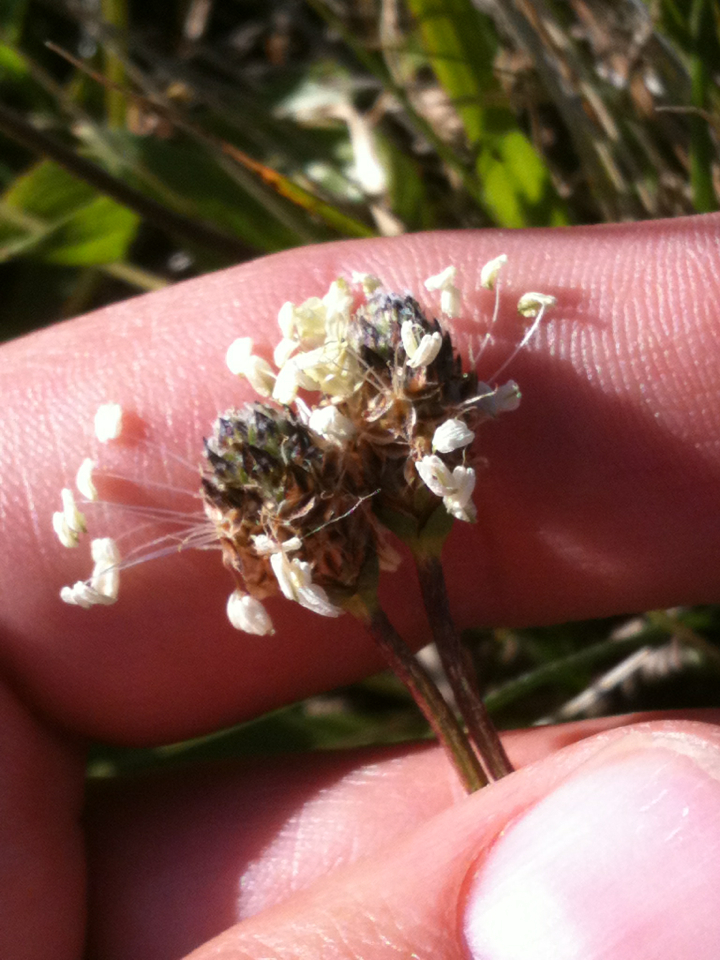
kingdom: Plantae
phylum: Tracheophyta
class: Magnoliopsida
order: Lamiales
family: Plantaginaceae
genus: Plantago
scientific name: Plantago lanceolata
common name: Ribwort plantain
